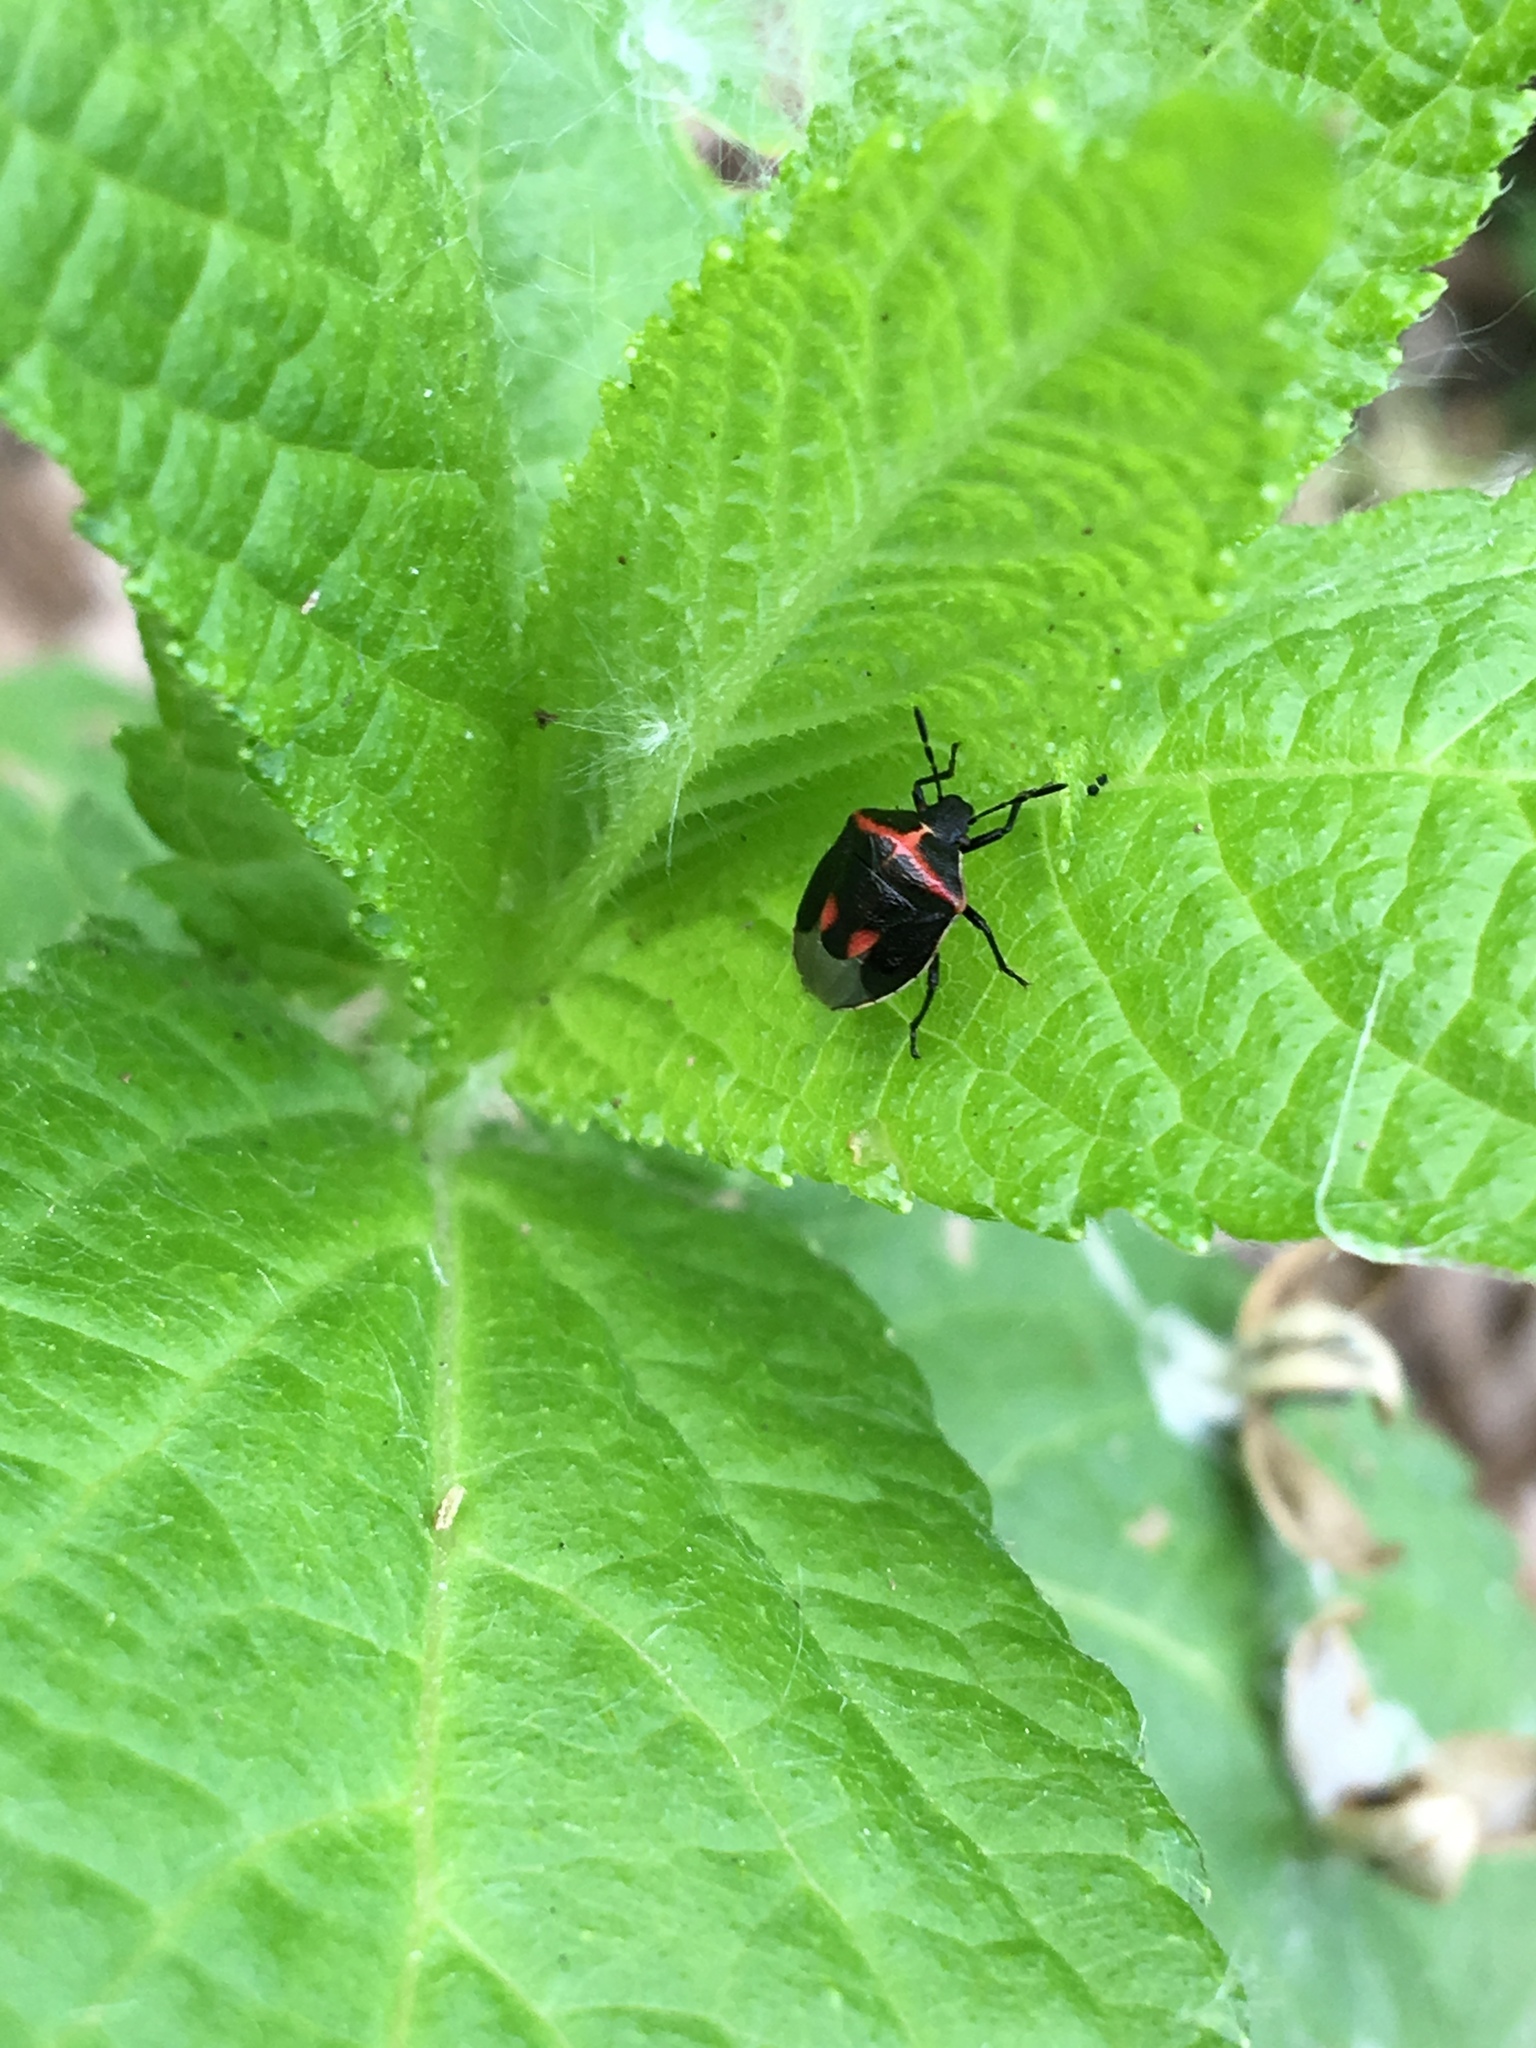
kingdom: Animalia
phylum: Arthropoda
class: Insecta
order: Hemiptera
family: Pentatomidae
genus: Cosmopepla
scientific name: Cosmopepla lintneriana
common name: Twice-stabbed stink bug
